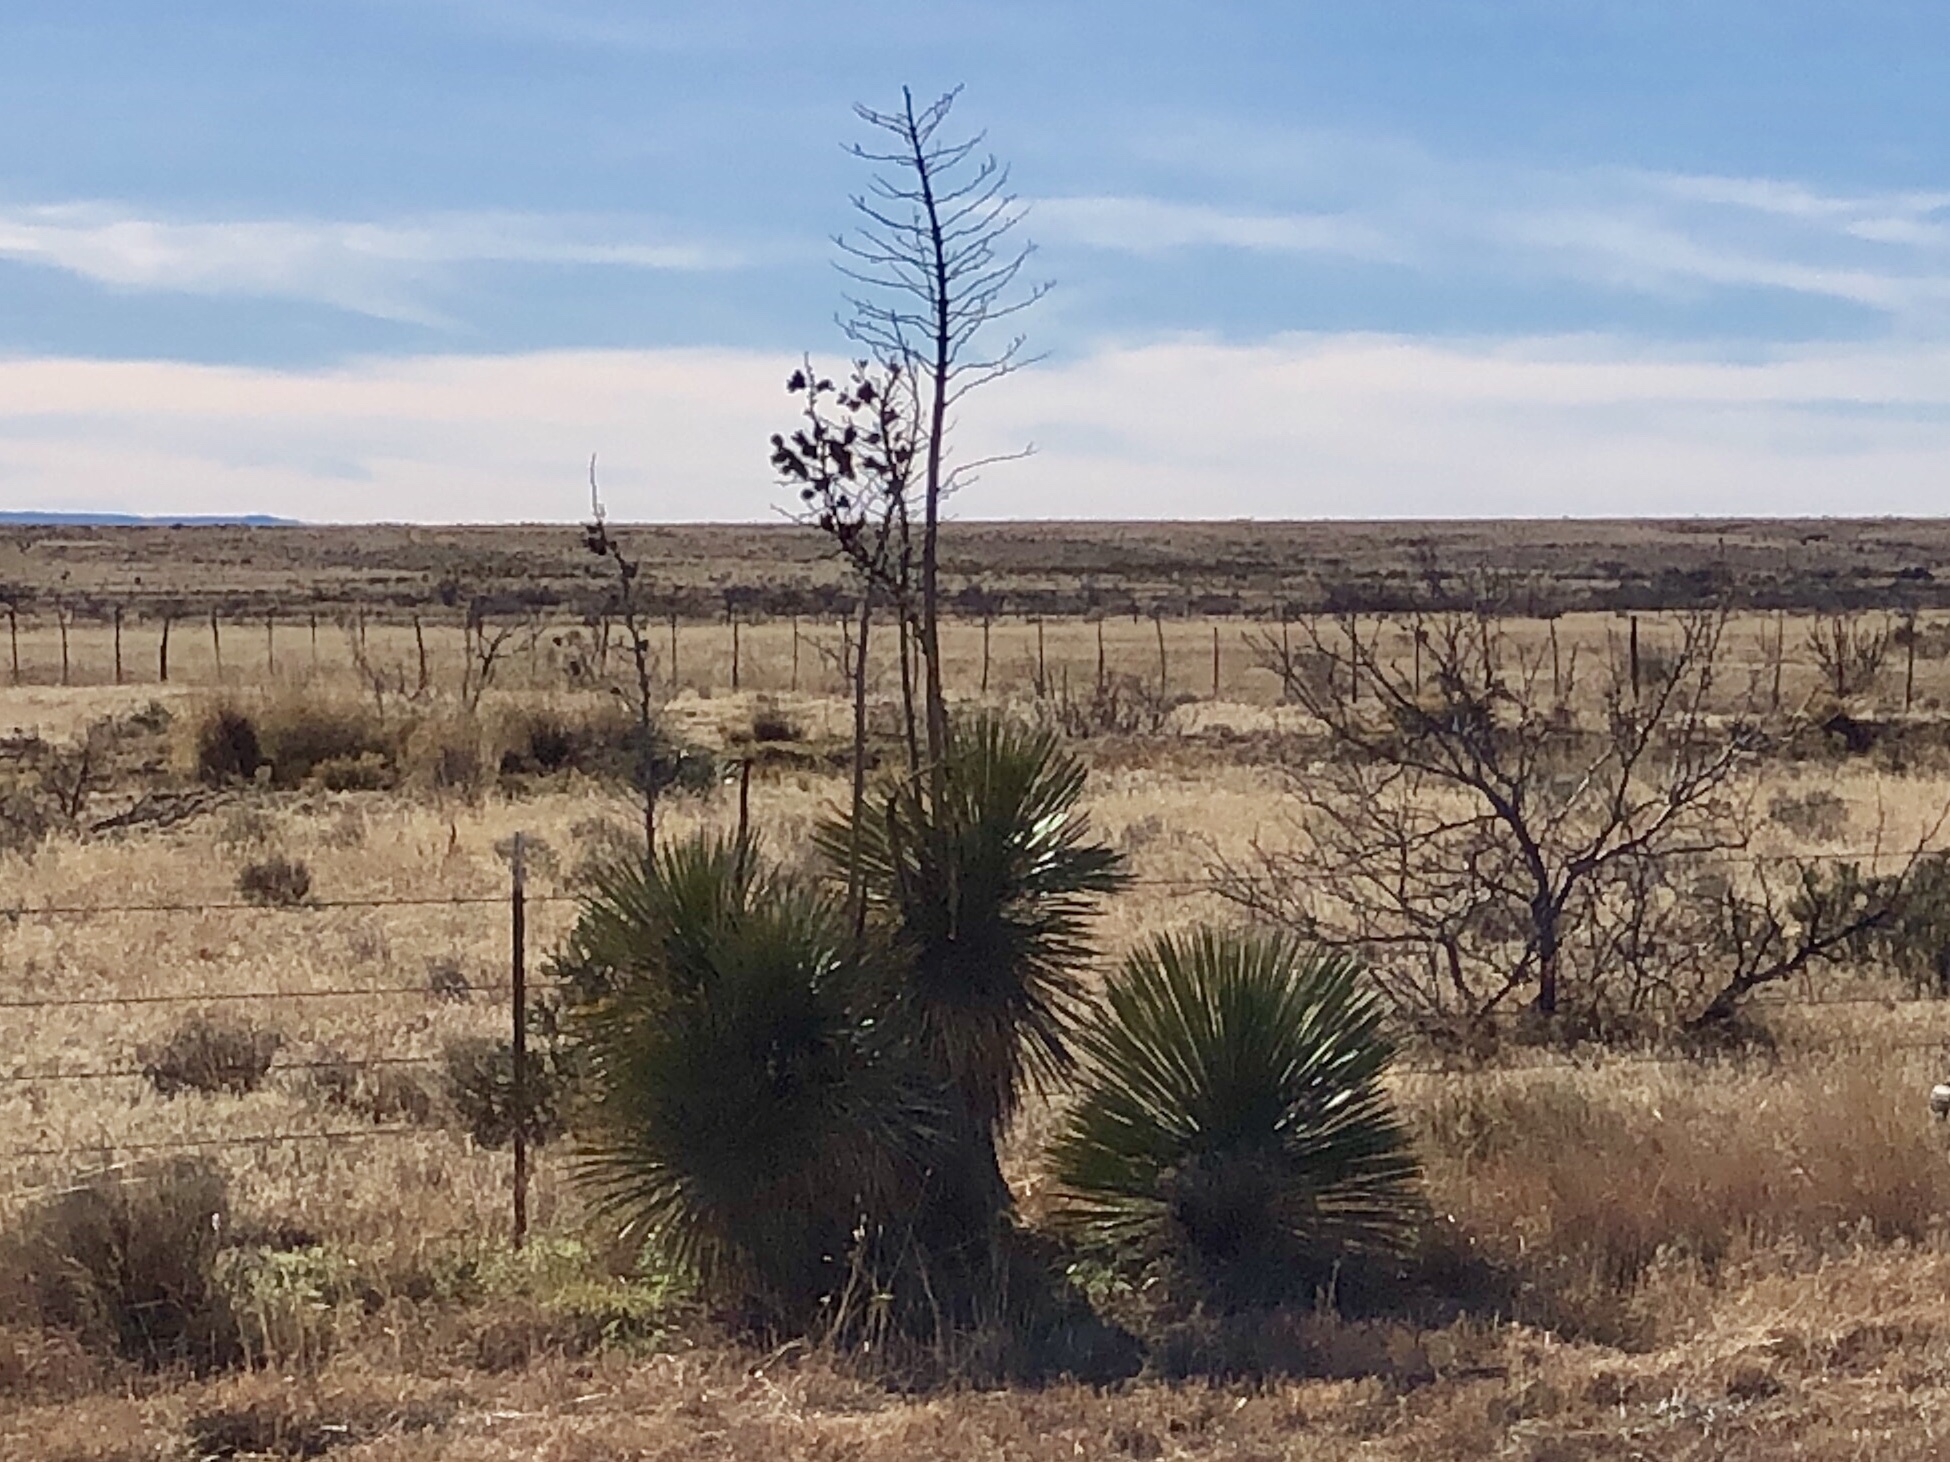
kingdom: Plantae
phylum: Tracheophyta
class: Liliopsida
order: Asparagales
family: Asparagaceae
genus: Yucca
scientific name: Yucca elata
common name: Palmella
